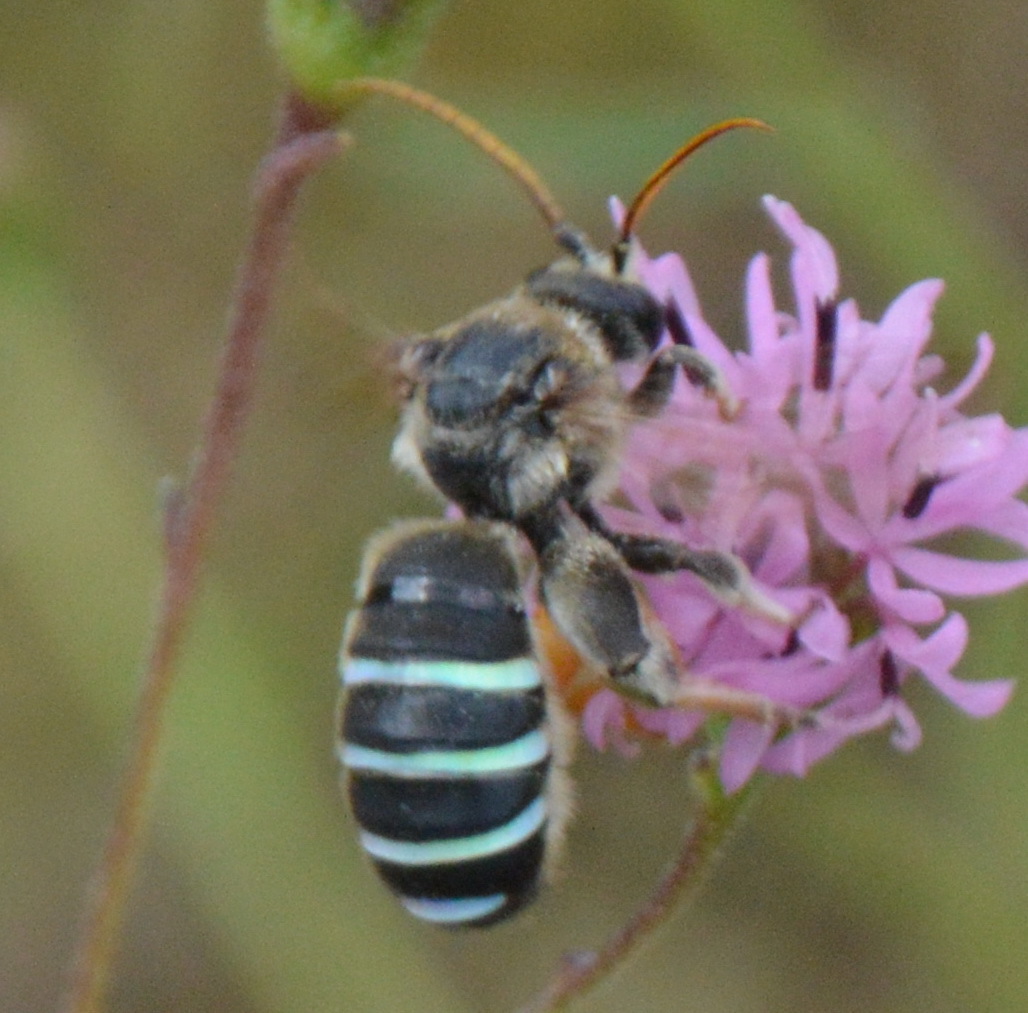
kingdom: Animalia
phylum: Arthropoda
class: Insecta
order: Hymenoptera
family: Halictidae
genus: Nomia
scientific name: Nomia nortoni
